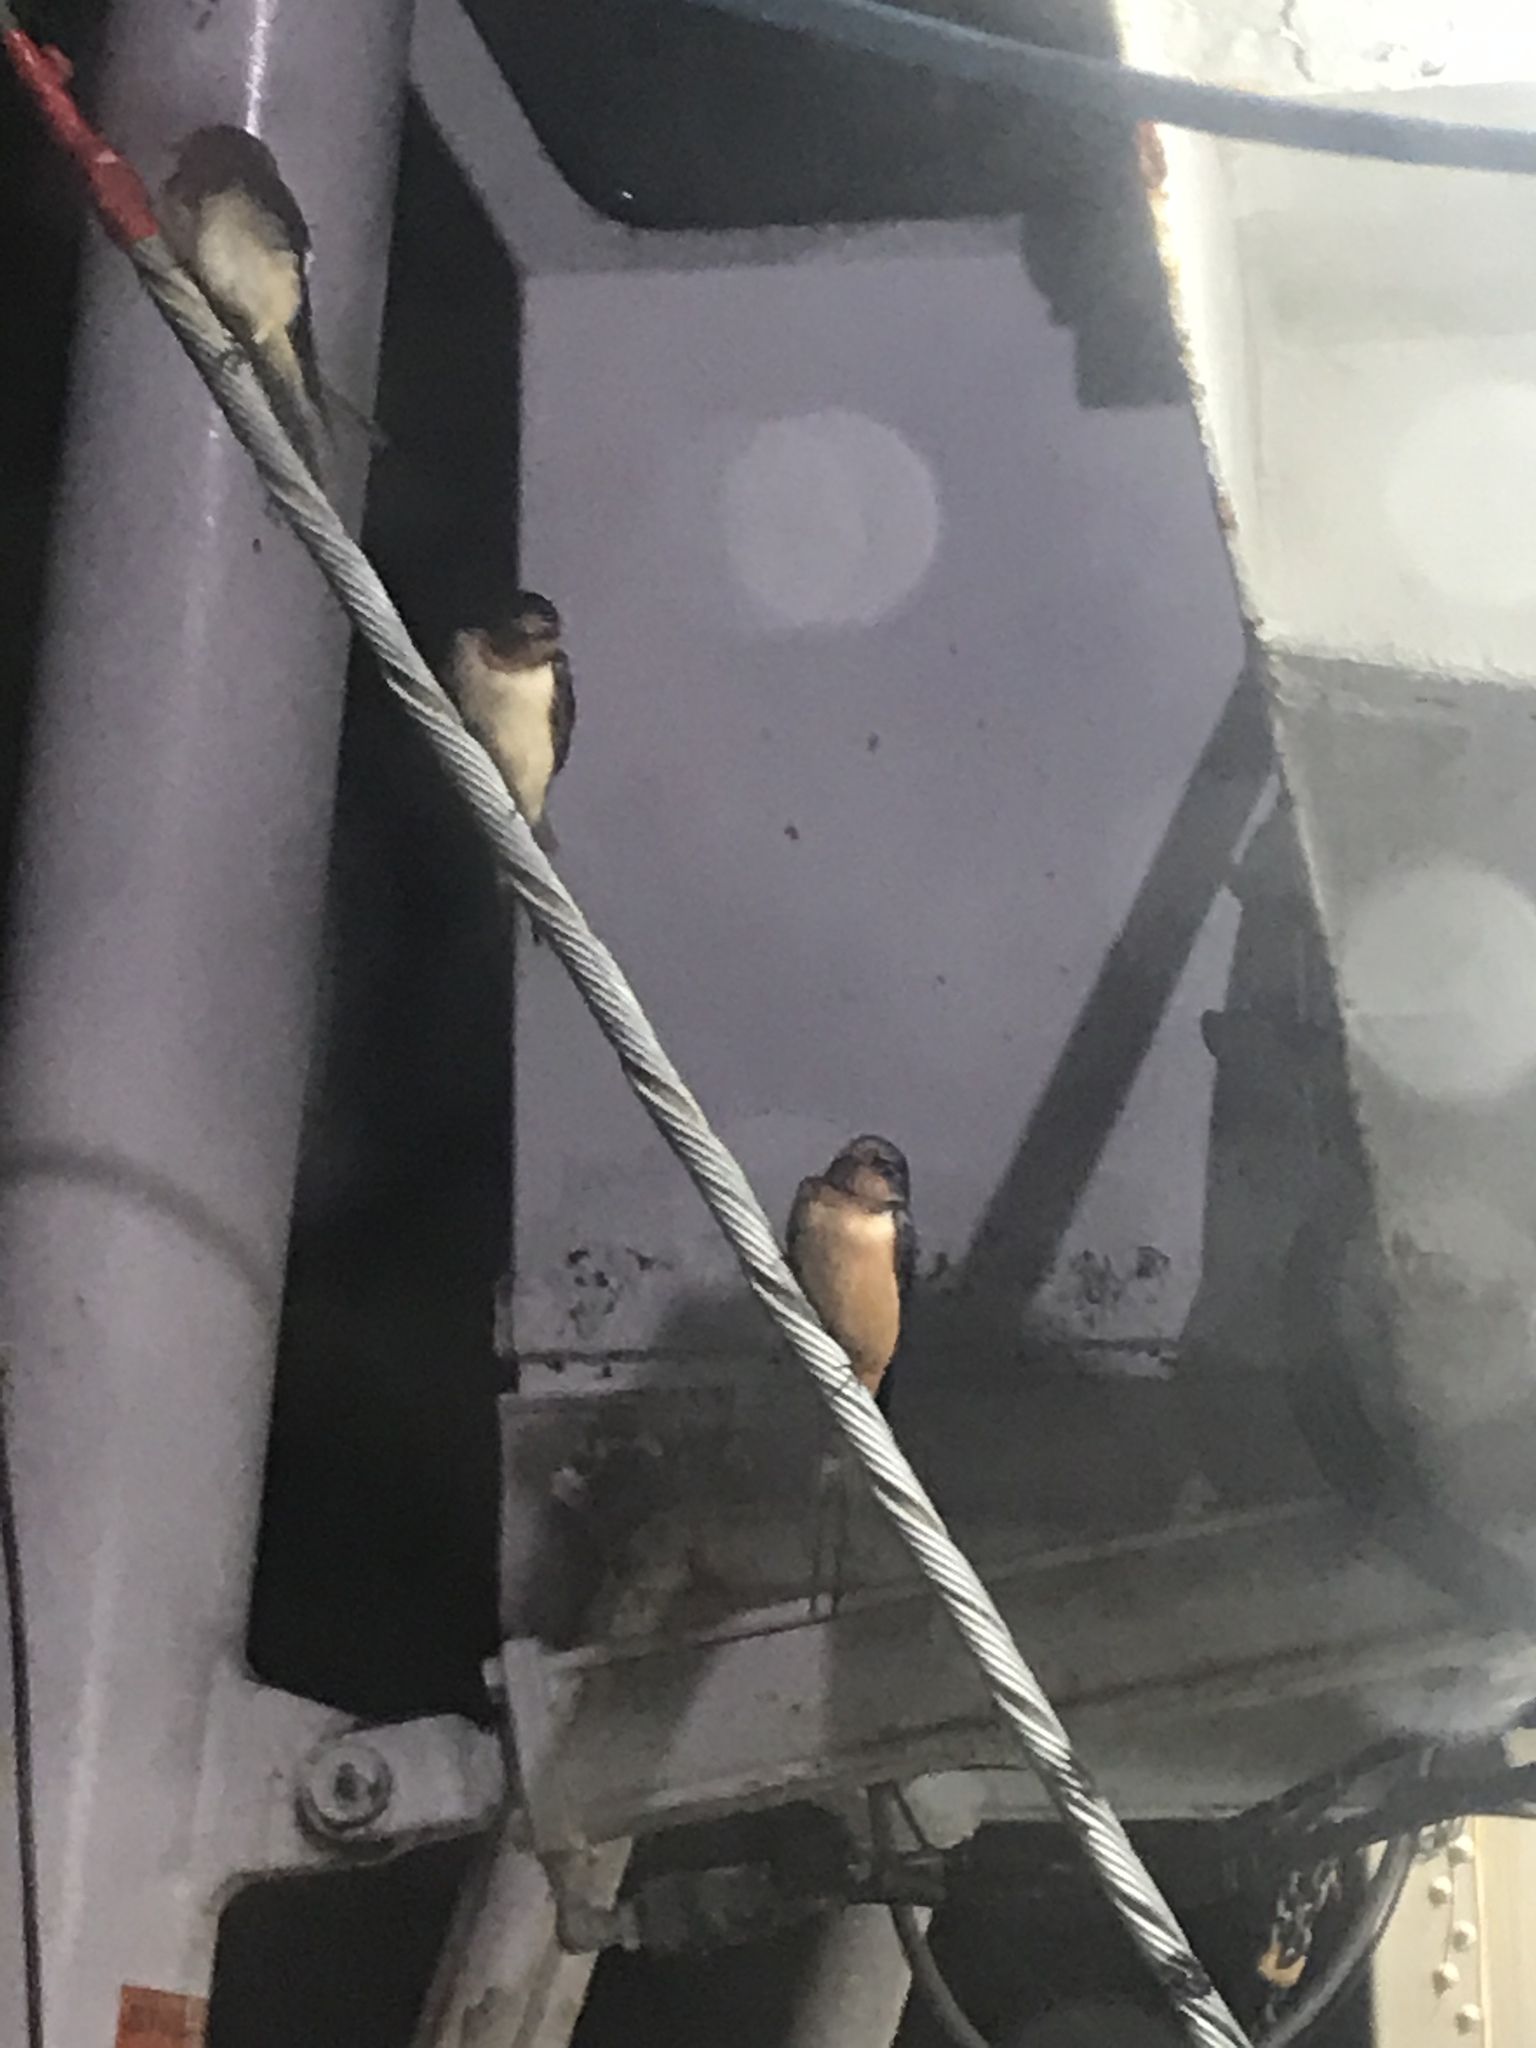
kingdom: Animalia
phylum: Chordata
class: Aves
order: Passeriformes
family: Hirundinidae
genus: Hirundo
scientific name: Hirundo rustica
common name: Barn swallow
